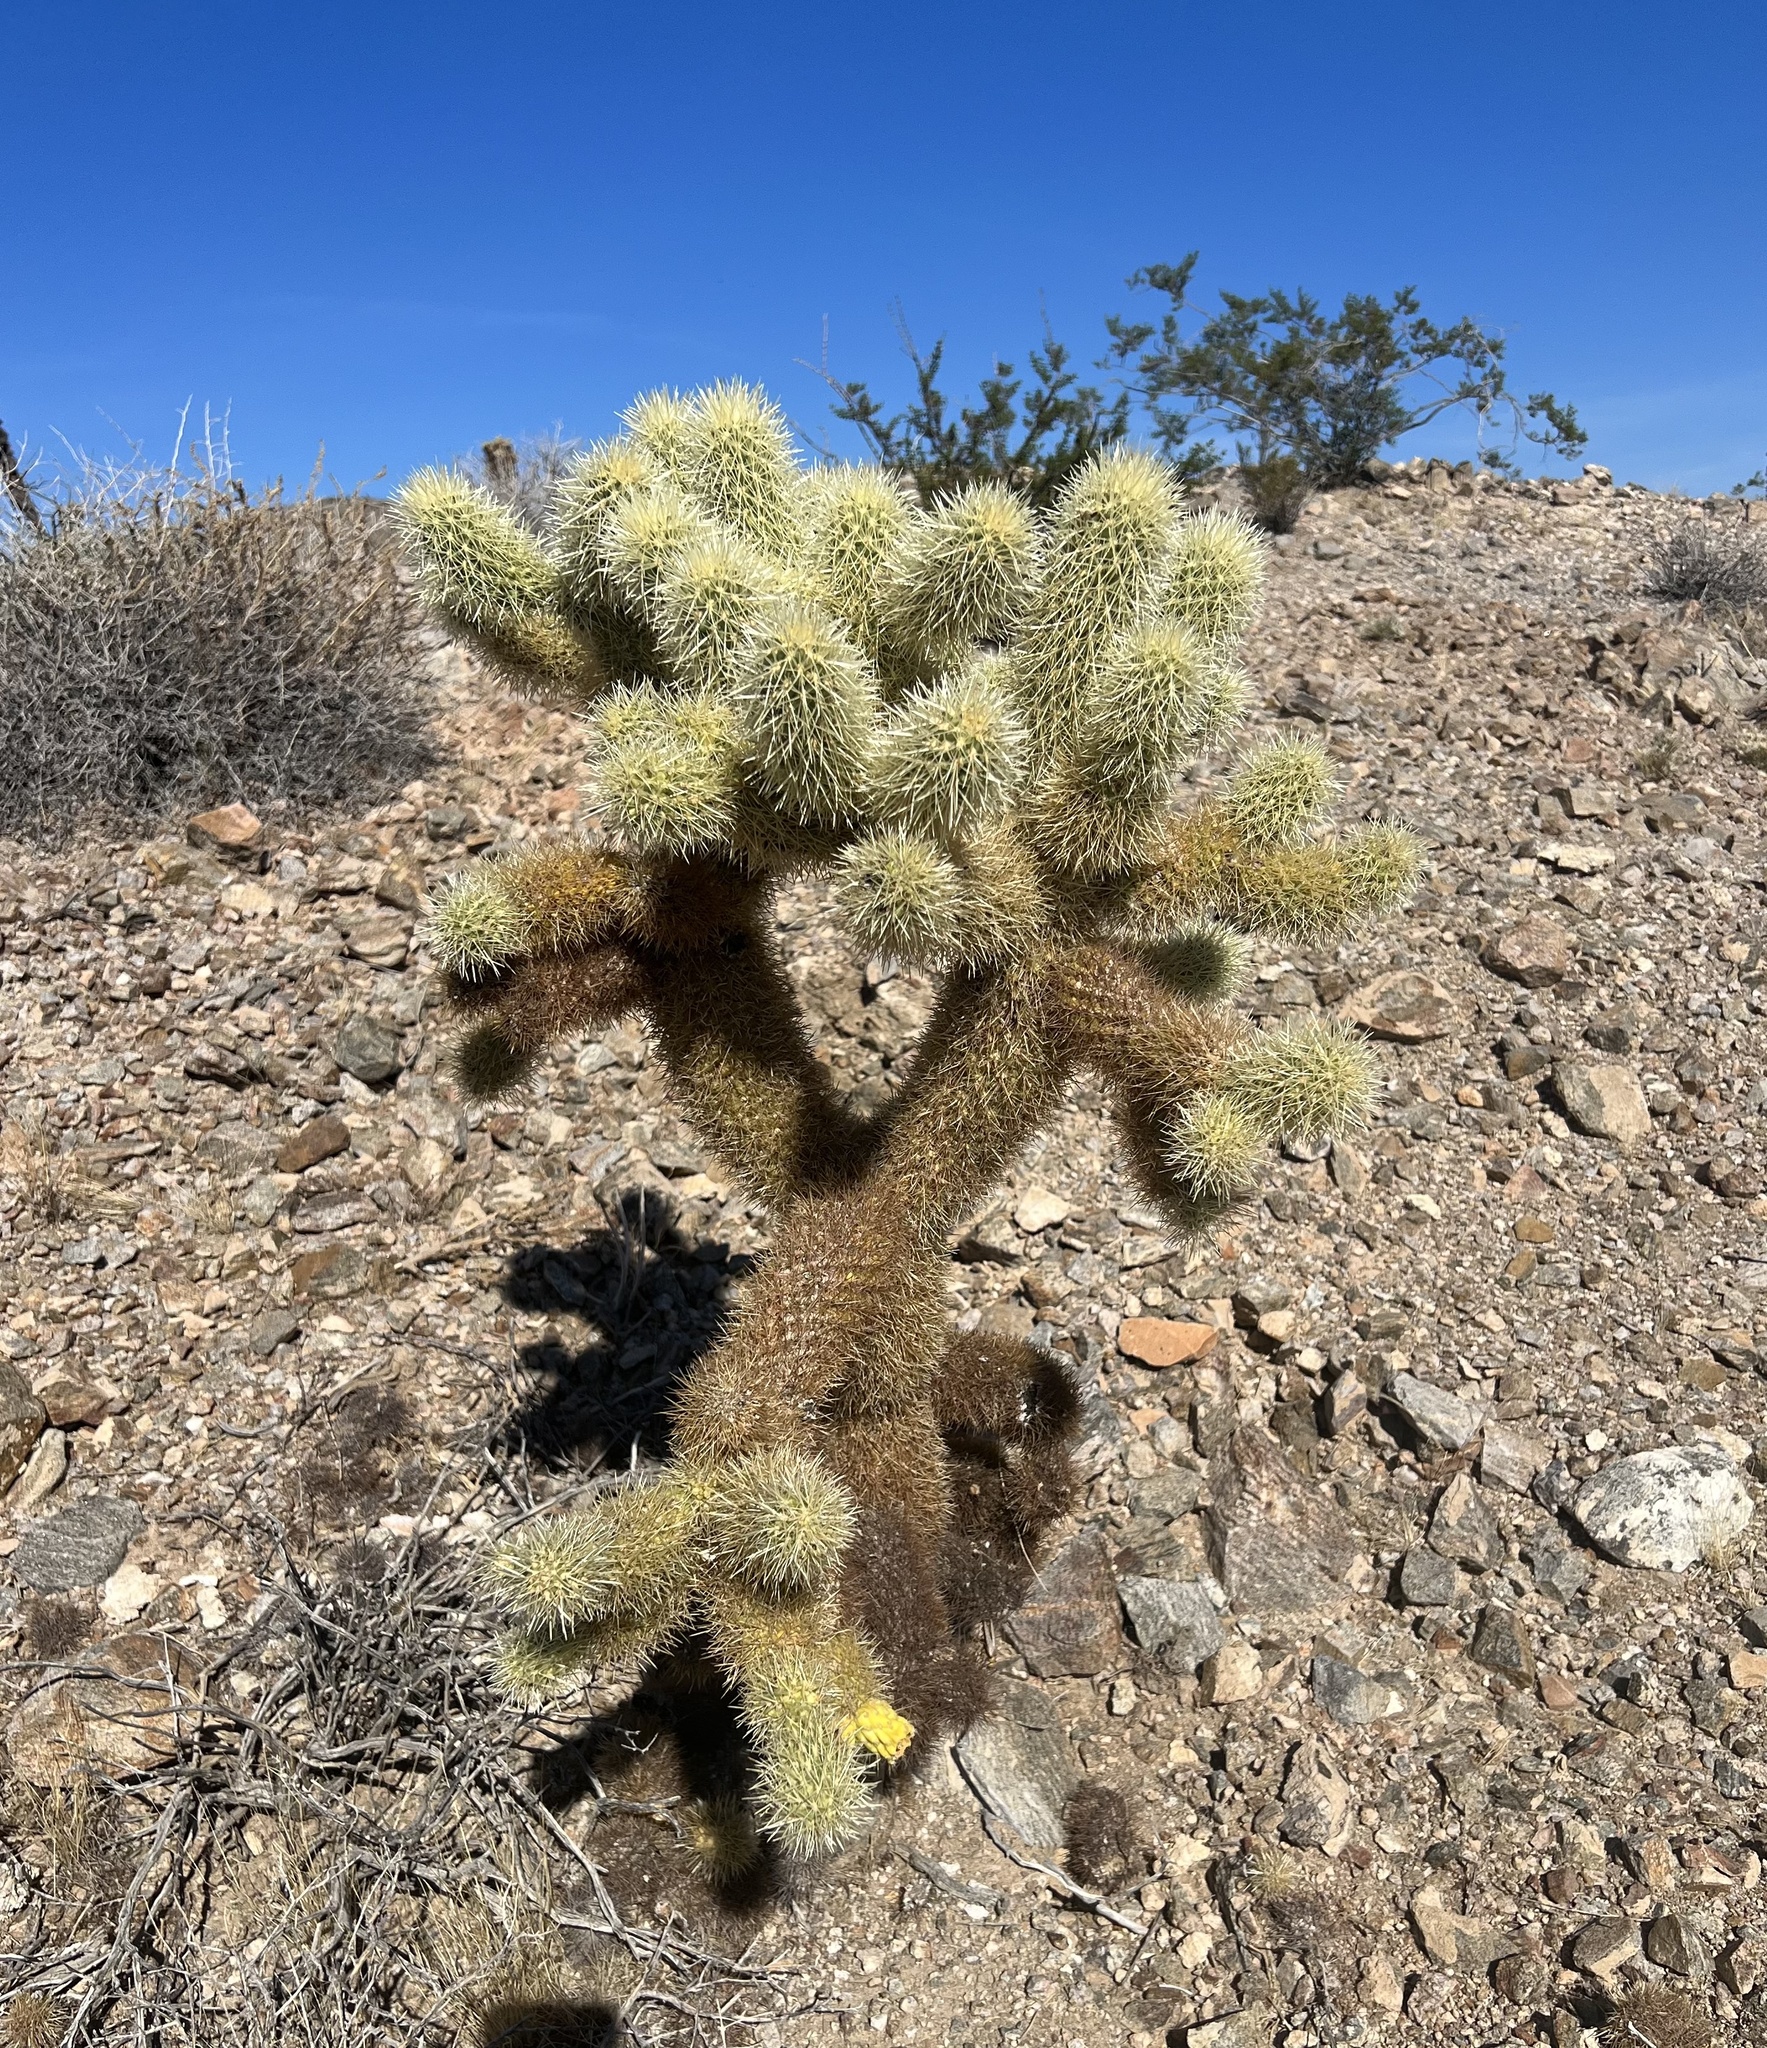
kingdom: Plantae
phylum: Tracheophyta
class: Magnoliopsida
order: Caryophyllales
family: Cactaceae
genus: Cylindropuntia
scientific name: Cylindropuntia fosbergii
